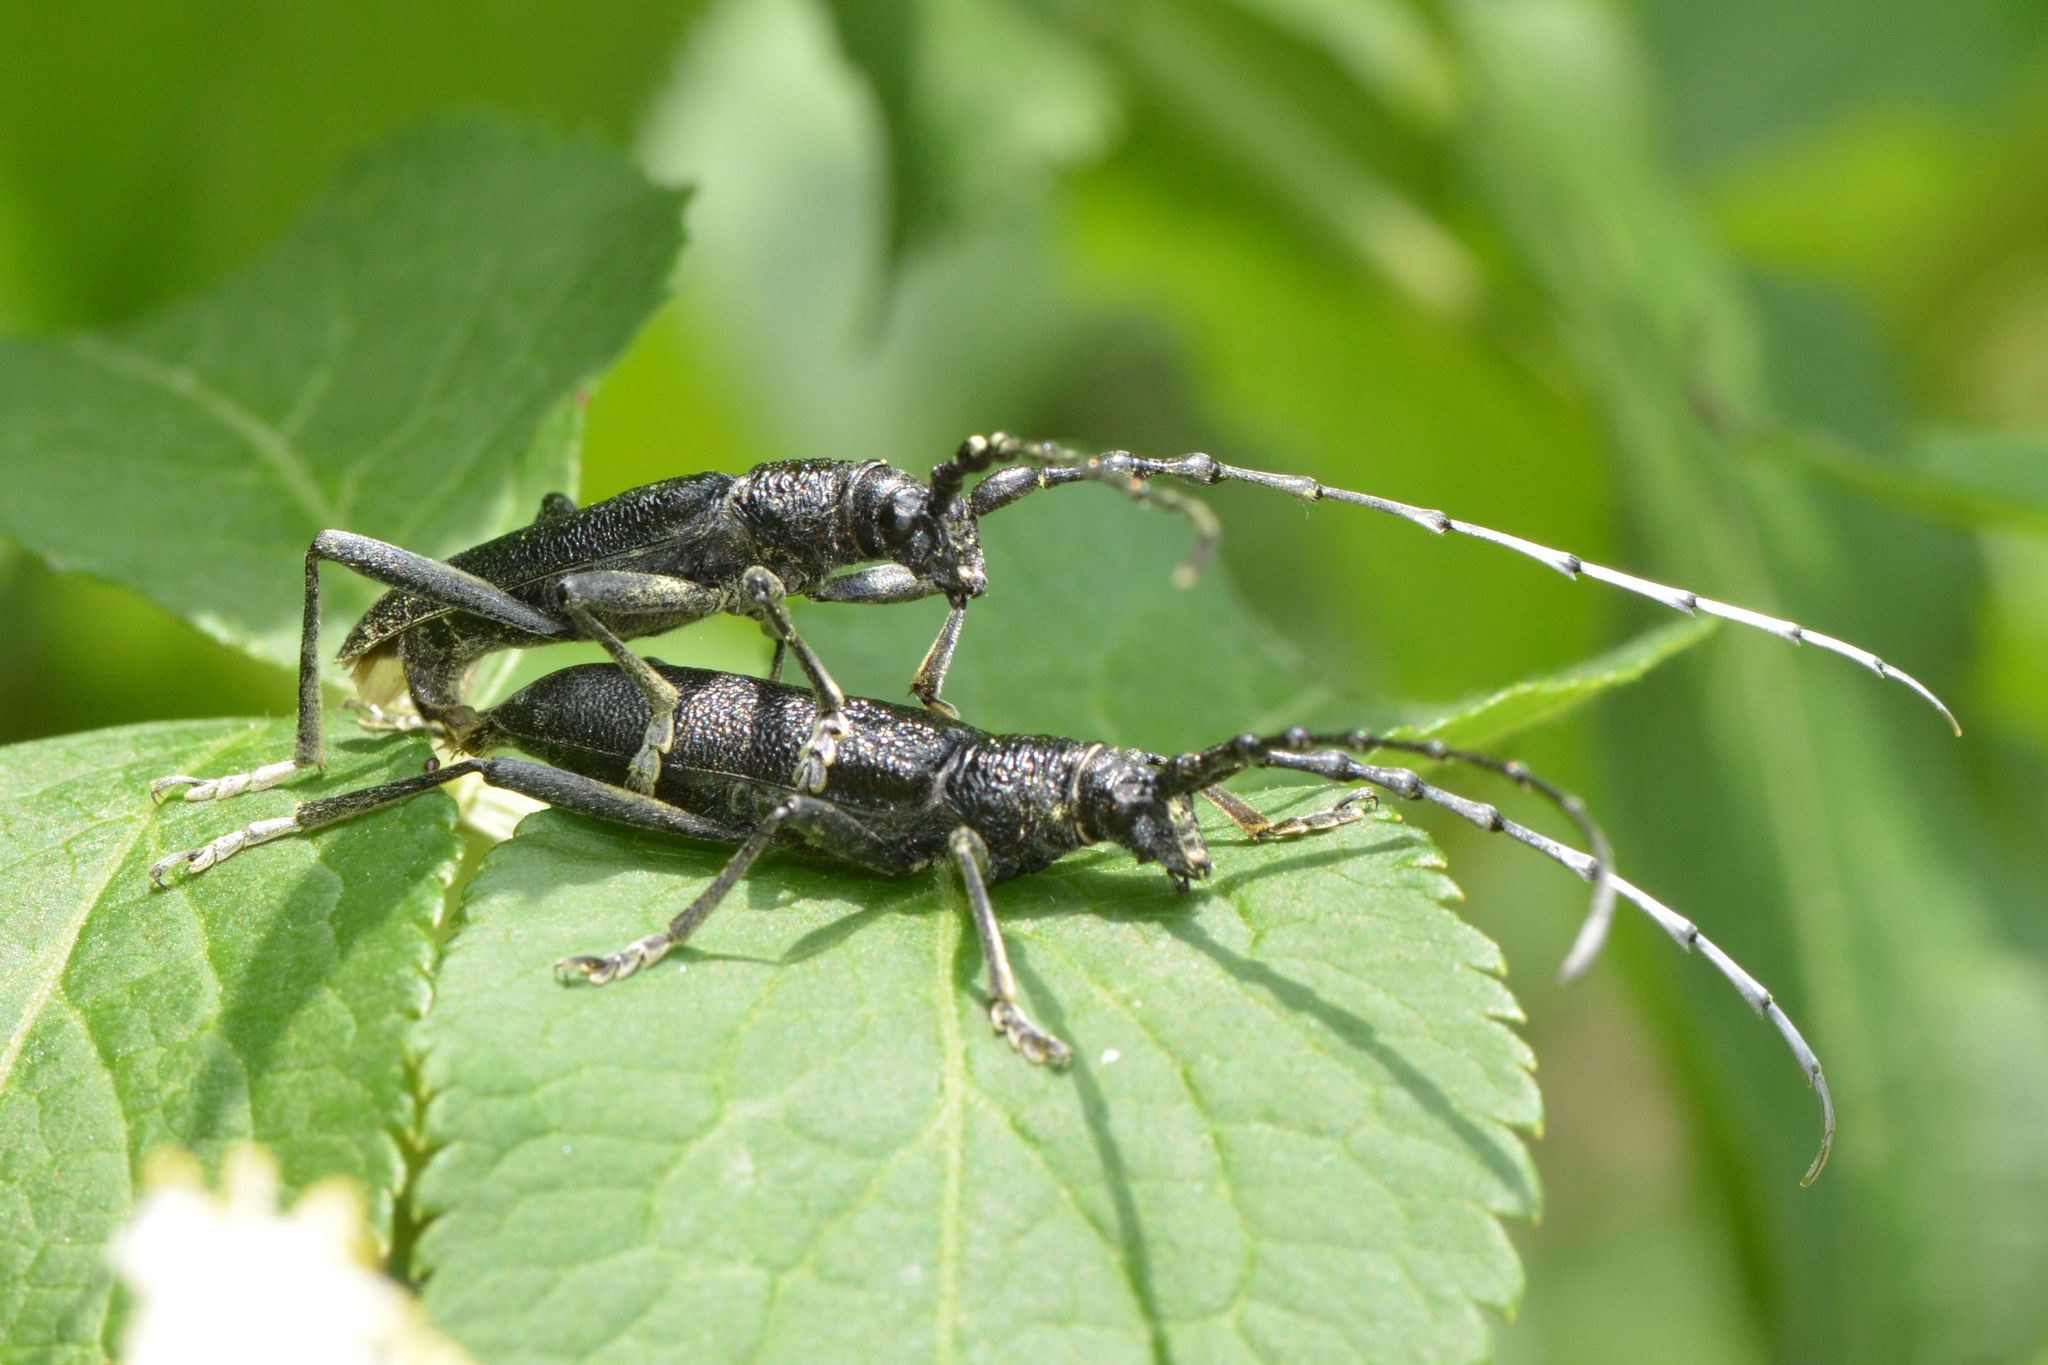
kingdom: Animalia
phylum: Arthropoda
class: Insecta
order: Coleoptera
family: Cerambycidae
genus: Cerambyx
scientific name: Cerambyx scopolii
